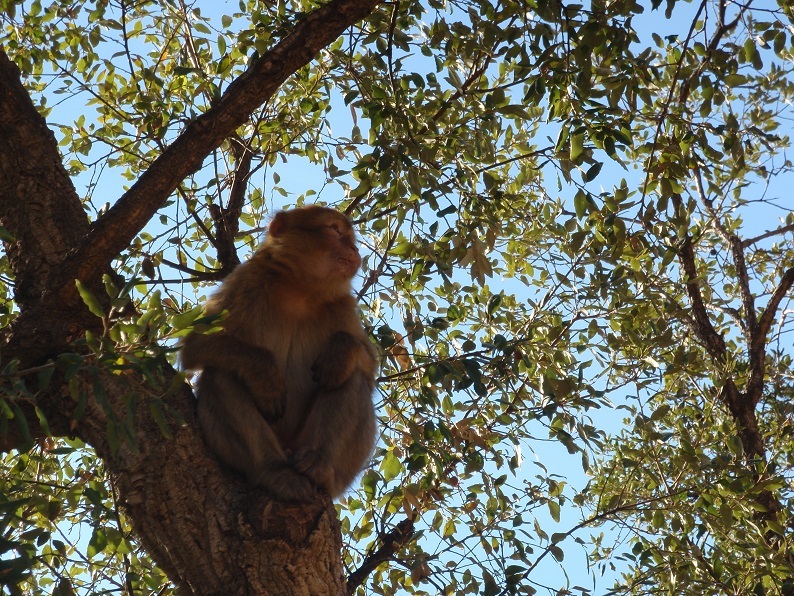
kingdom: Animalia
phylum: Chordata
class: Mammalia
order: Primates
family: Cercopithecidae
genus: Macaca
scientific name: Macaca sylvanus
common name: Barbary macaque
